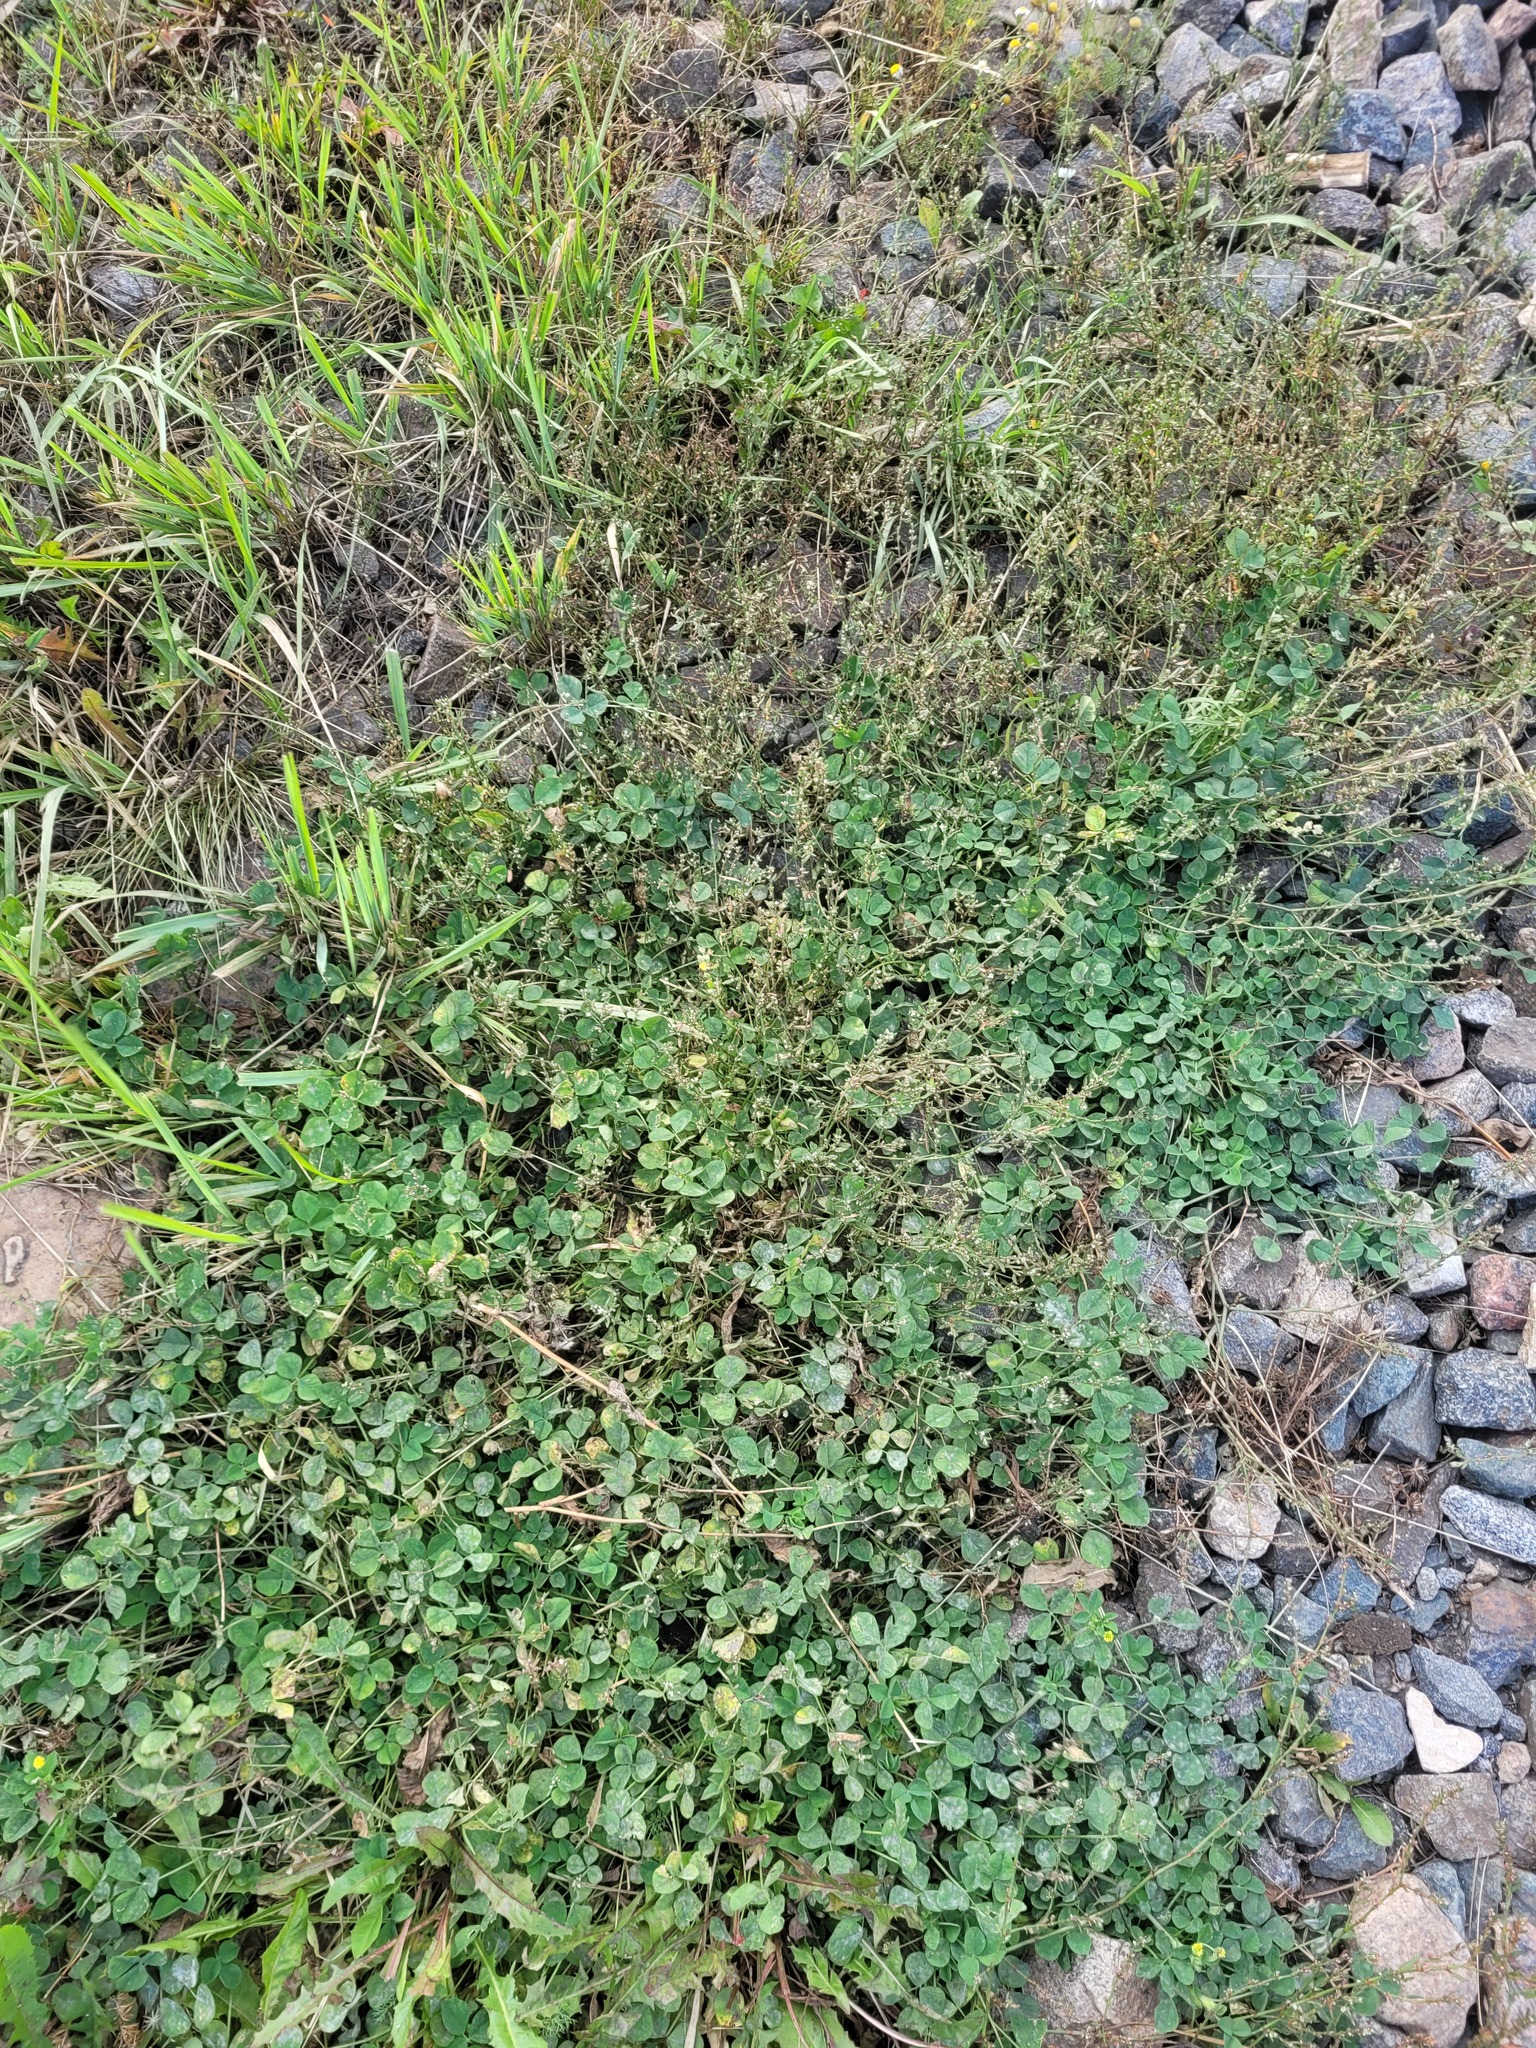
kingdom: Plantae
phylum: Tracheophyta
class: Magnoliopsida
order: Fabales
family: Fabaceae
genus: Medicago
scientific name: Medicago lupulina
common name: Black medick
